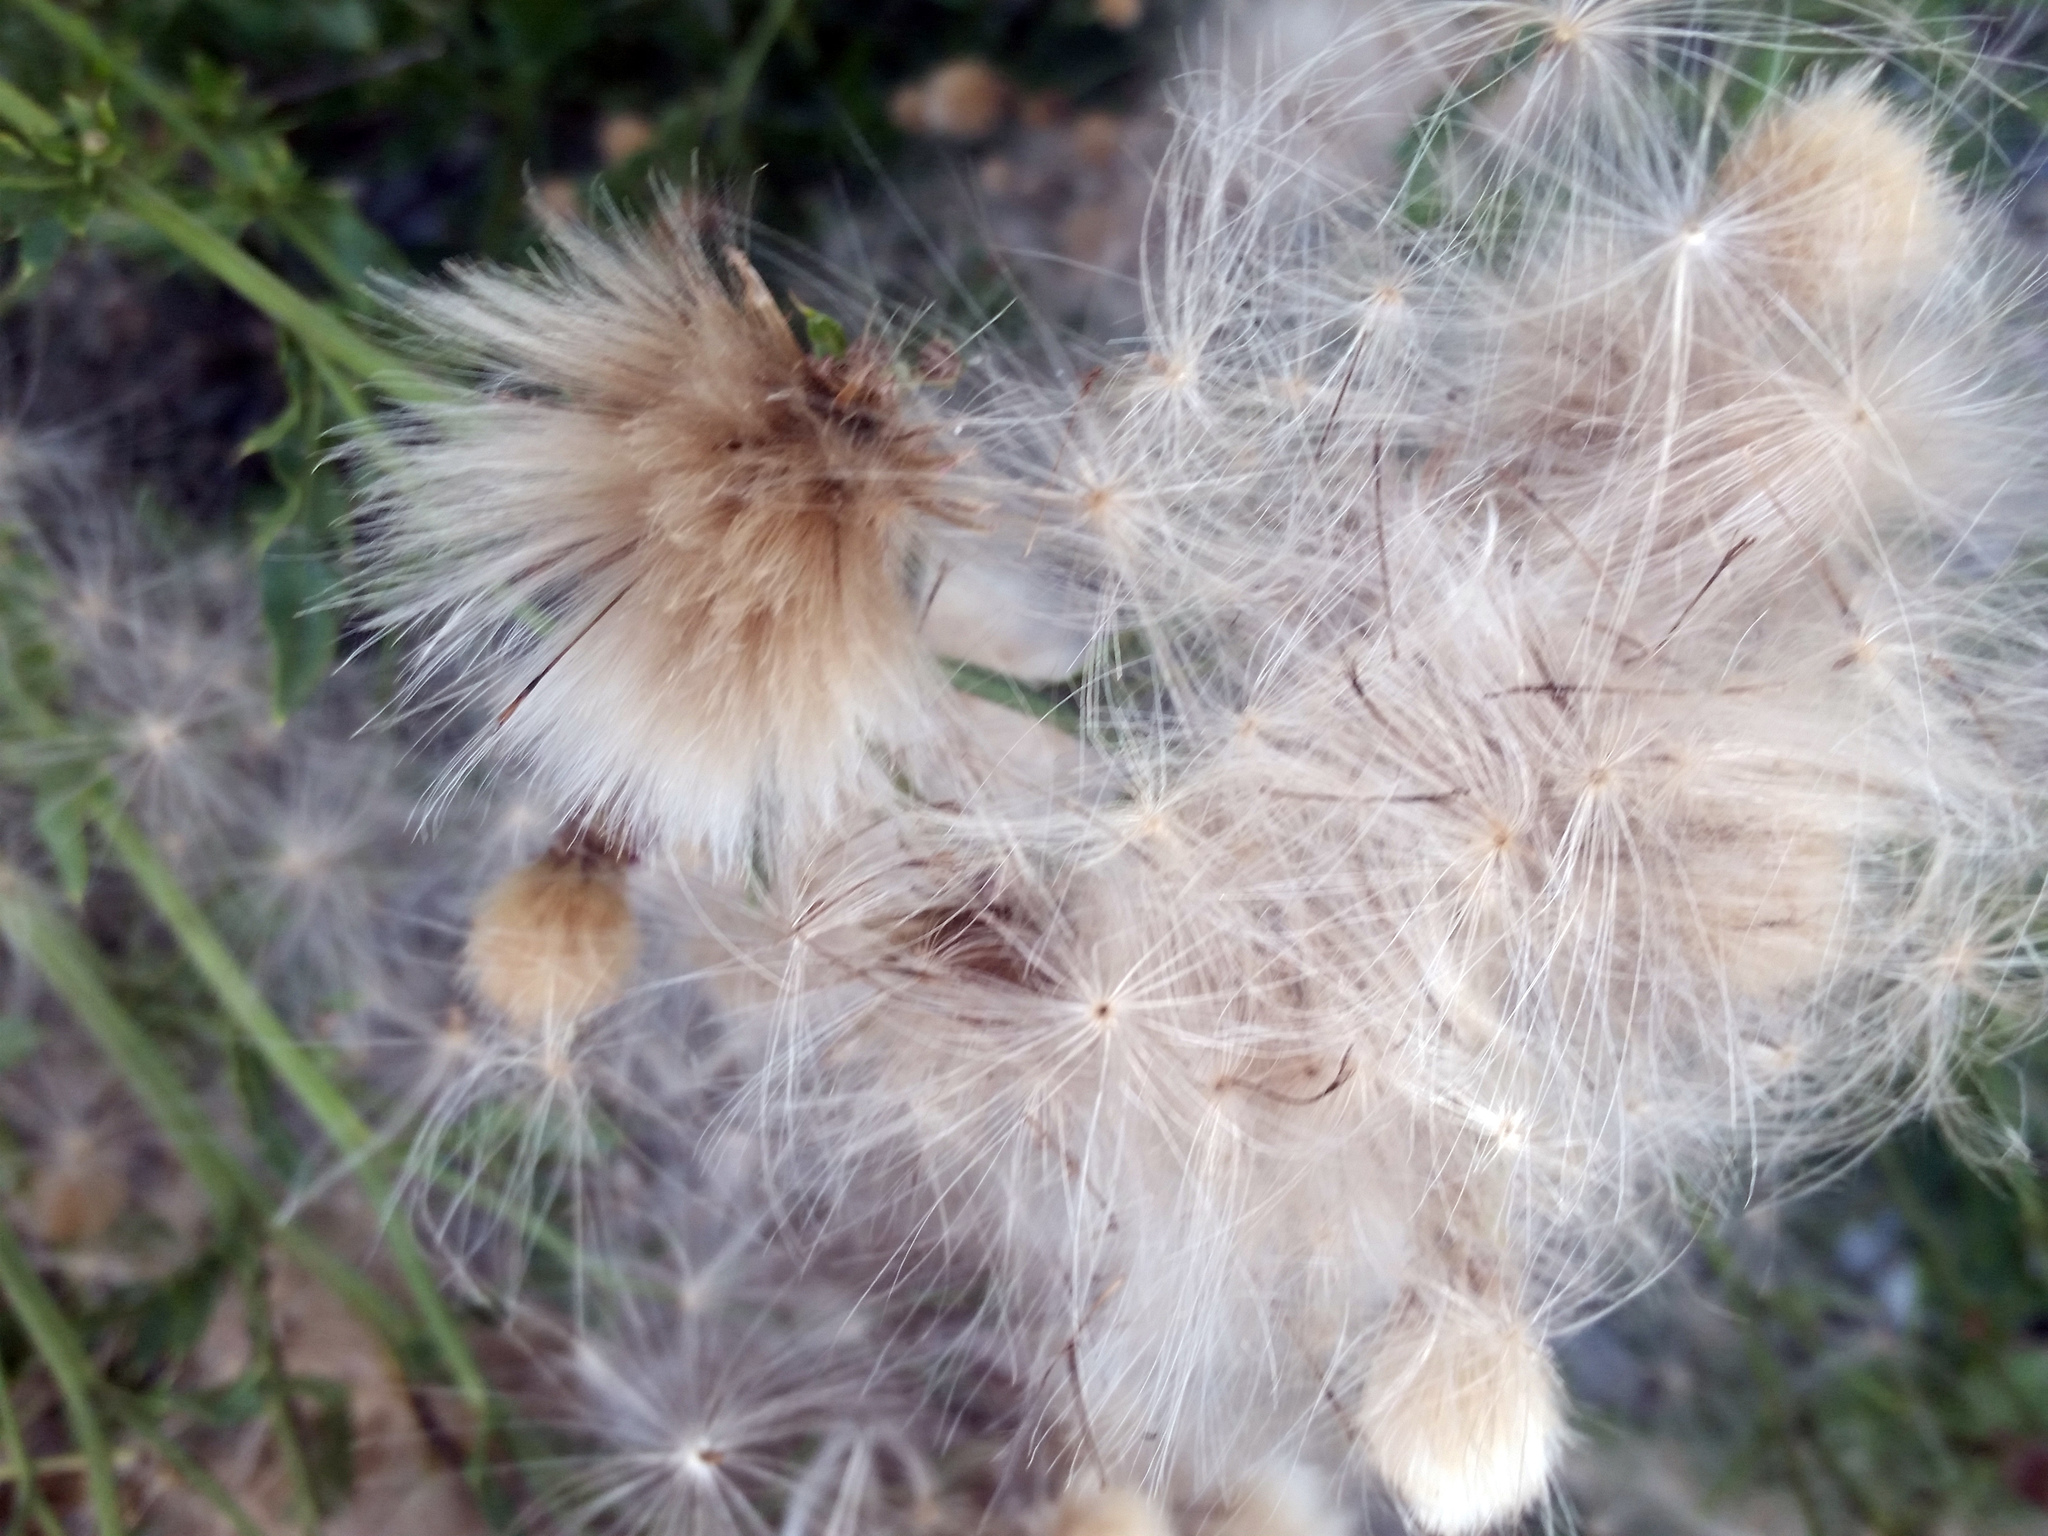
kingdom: Plantae
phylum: Tracheophyta
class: Magnoliopsida
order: Asterales
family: Asteraceae
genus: Cirsium
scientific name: Cirsium vulgare
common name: Bull thistle
